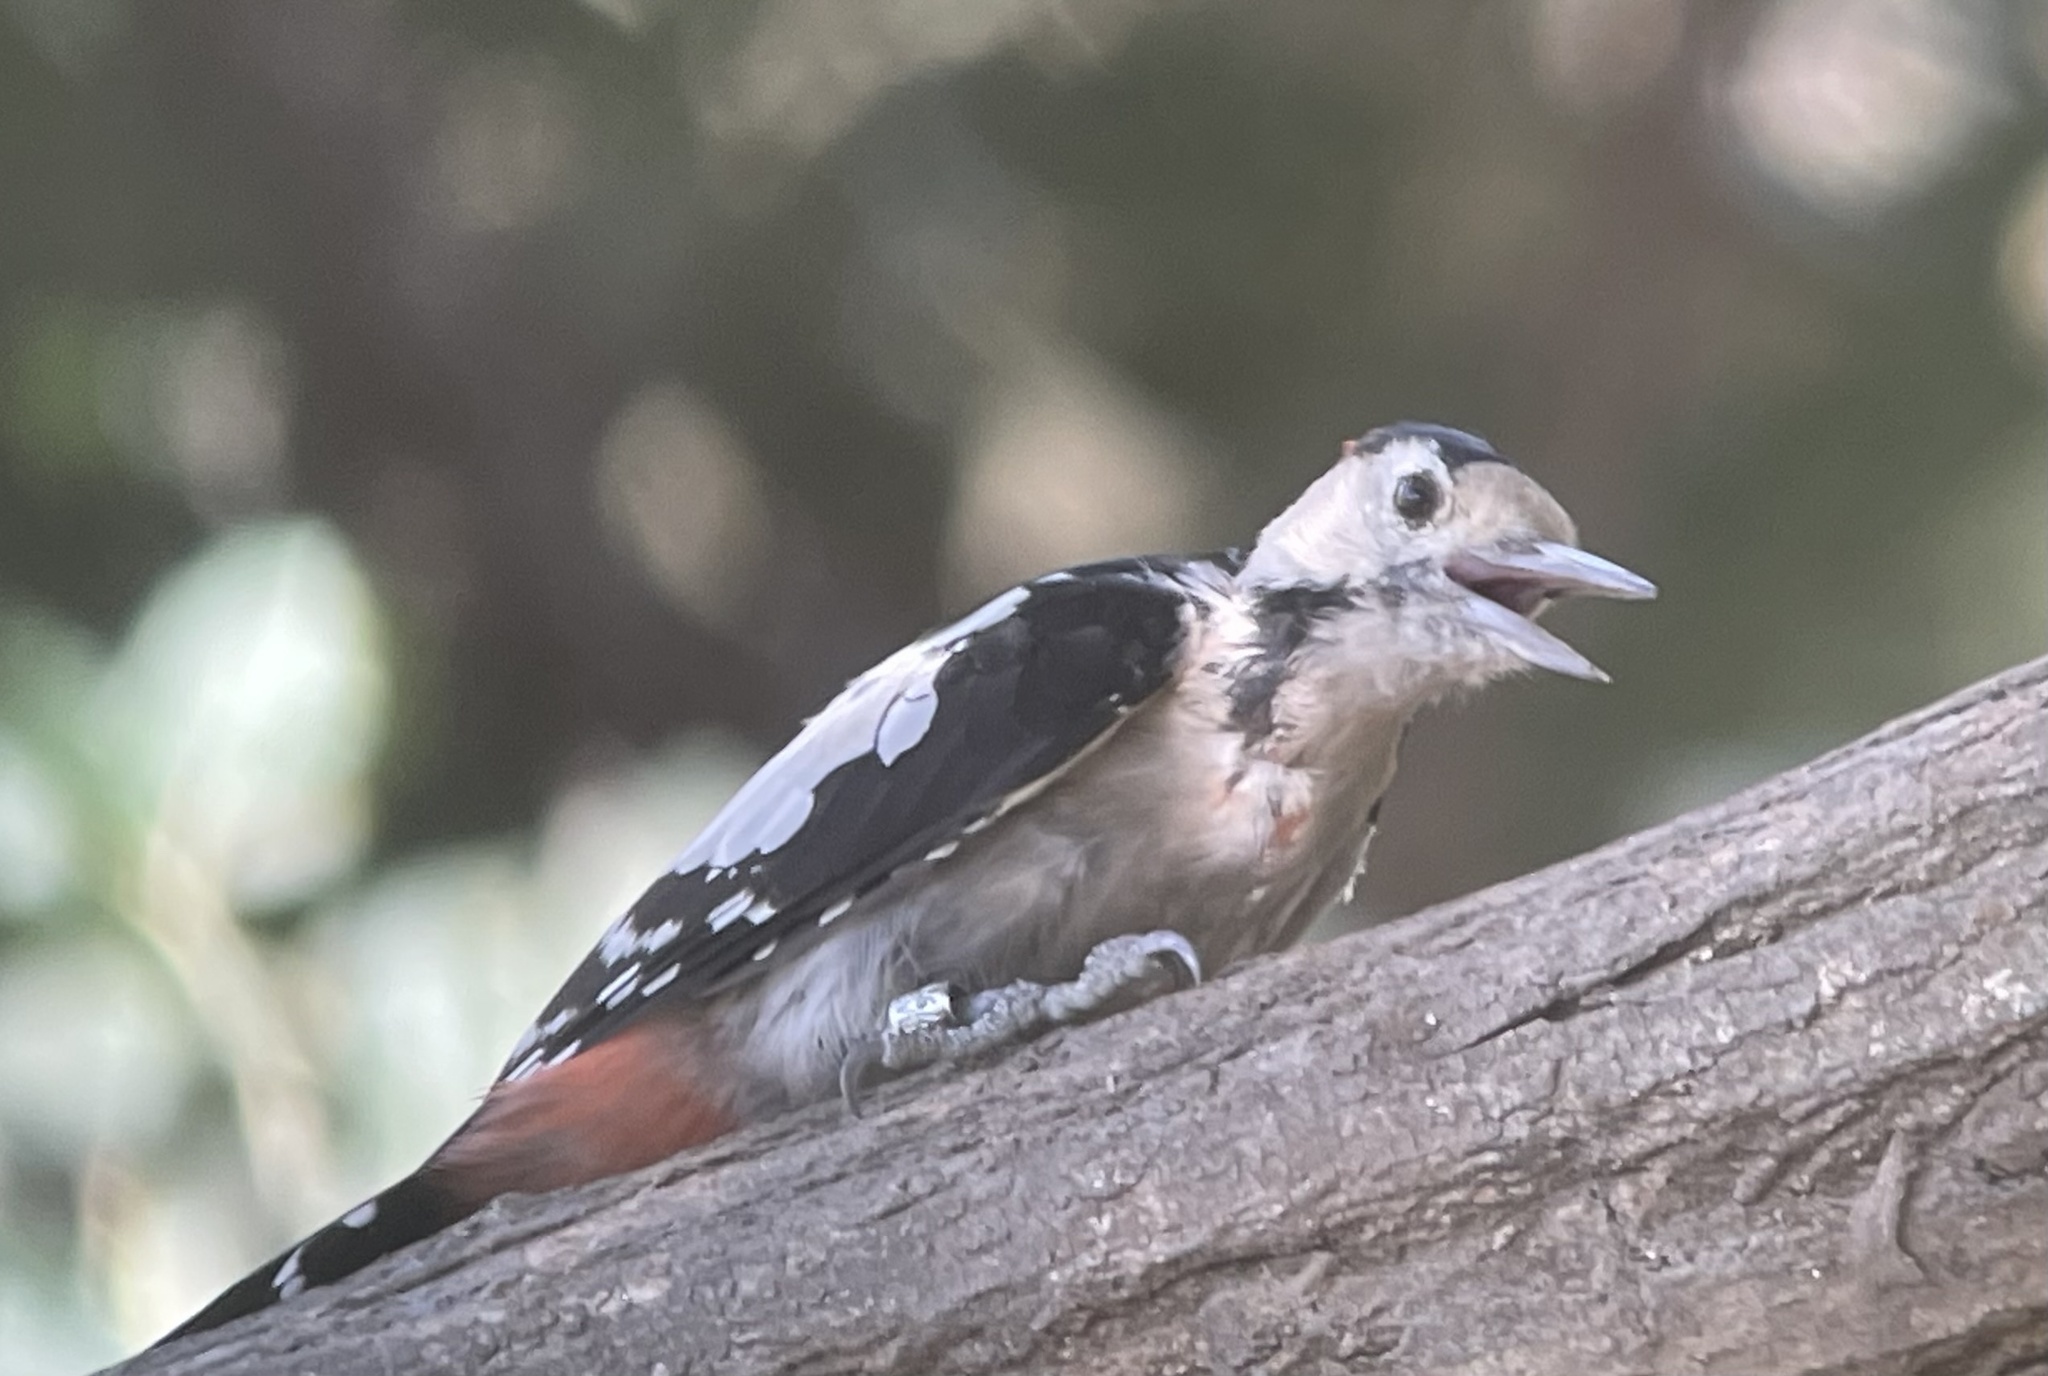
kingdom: Animalia
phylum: Chordata
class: Aves
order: Piciformes
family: Picidae
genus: Dendrocopos
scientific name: Dendrocopos syriacus
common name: Syrian woodpecker
